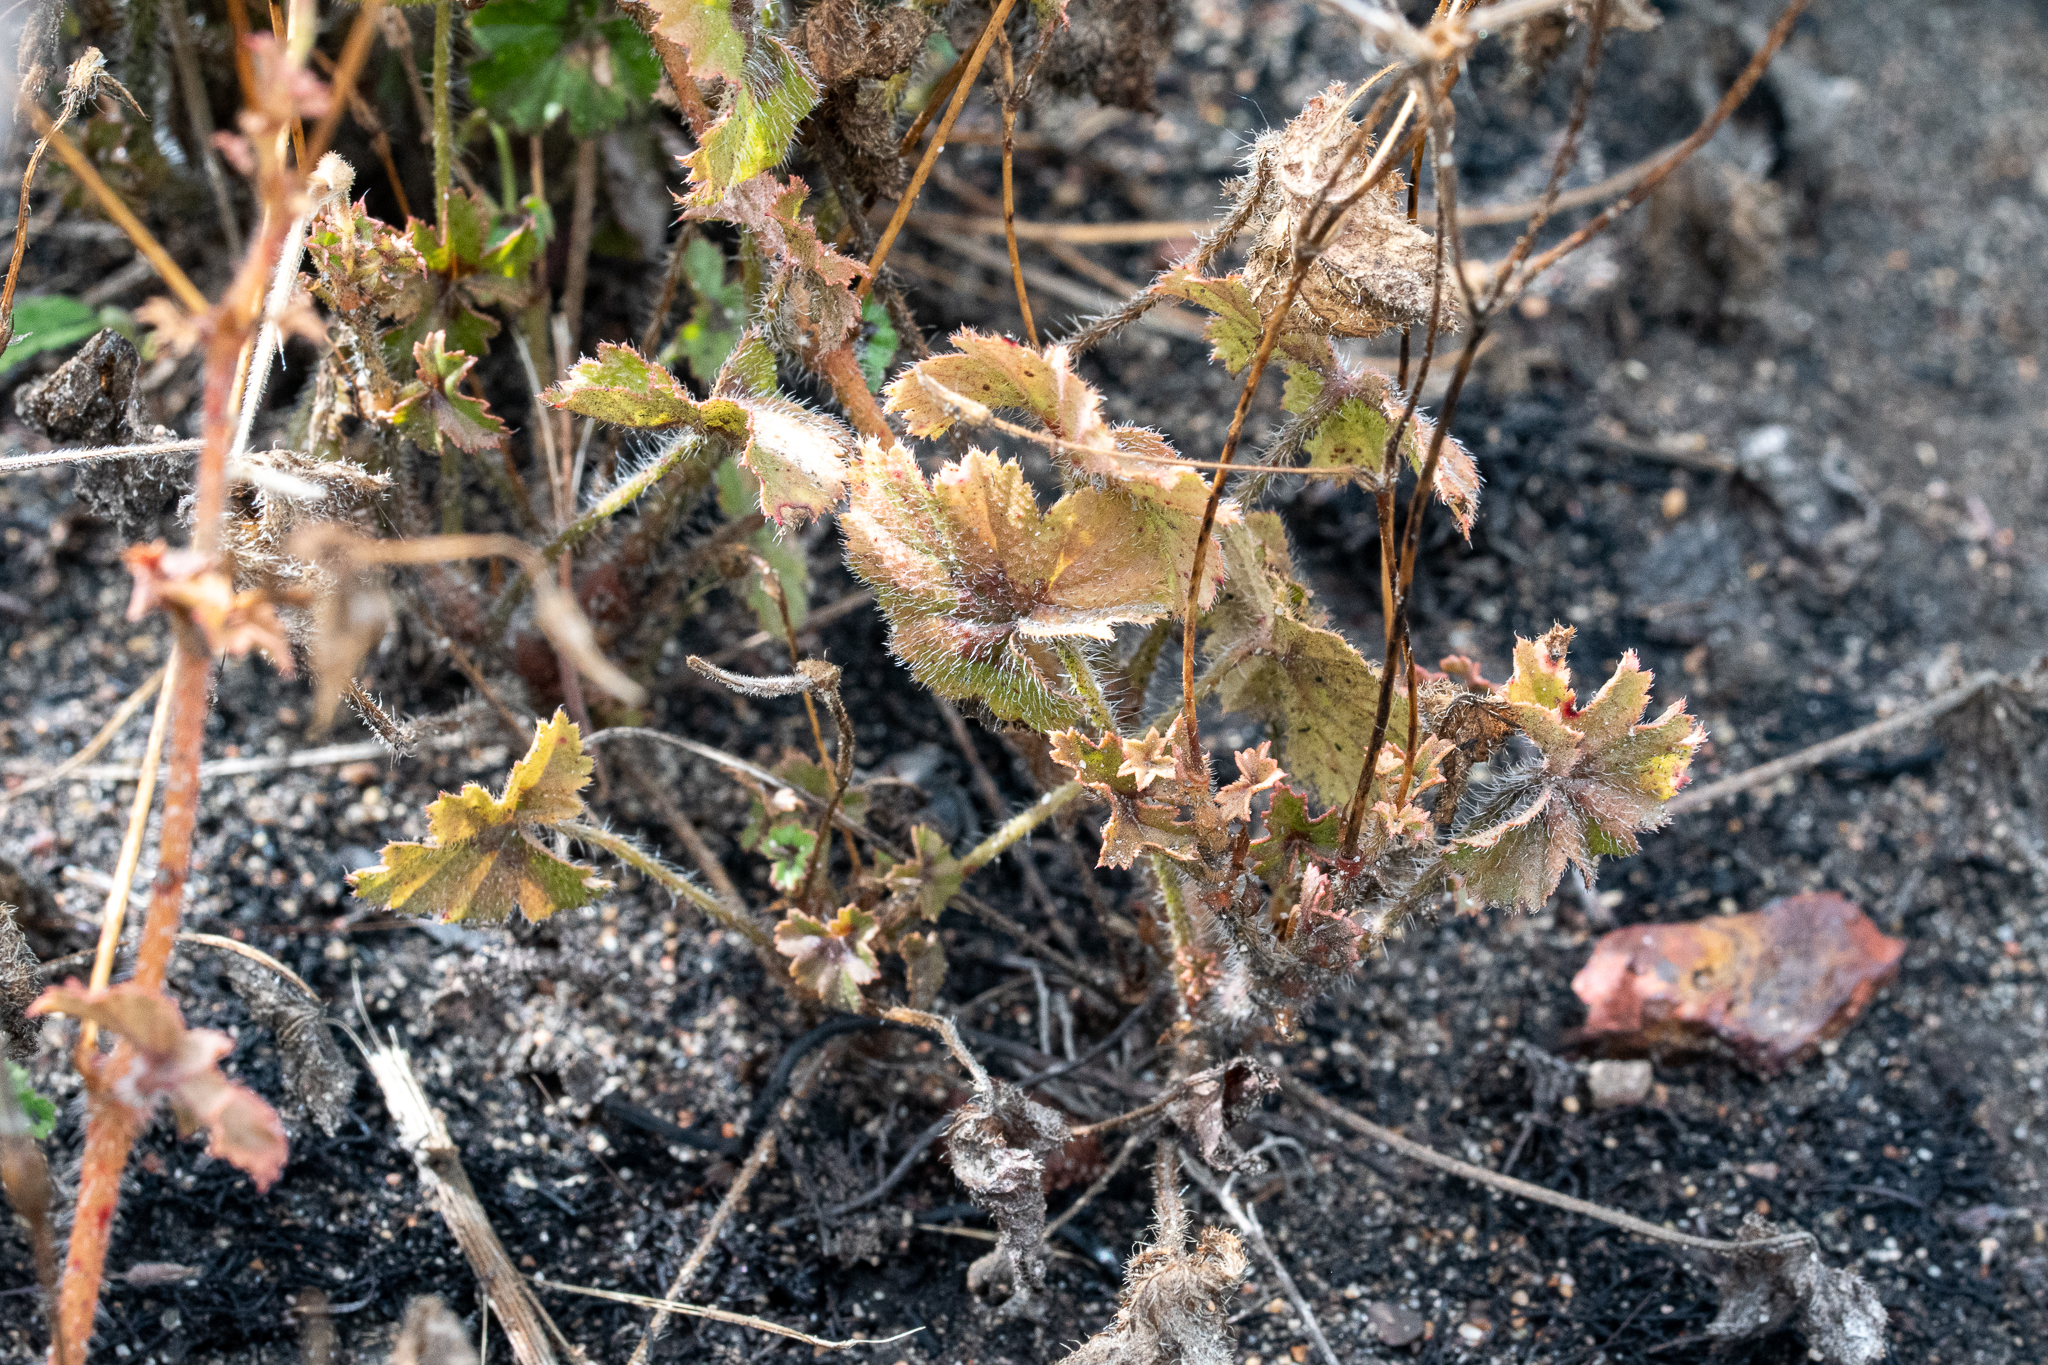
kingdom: Plantae
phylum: Tracheophyta
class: Magnoliopsida
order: Geraniales
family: Geraniaceae
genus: Pelargonium
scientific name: Pelargonium elongatum
